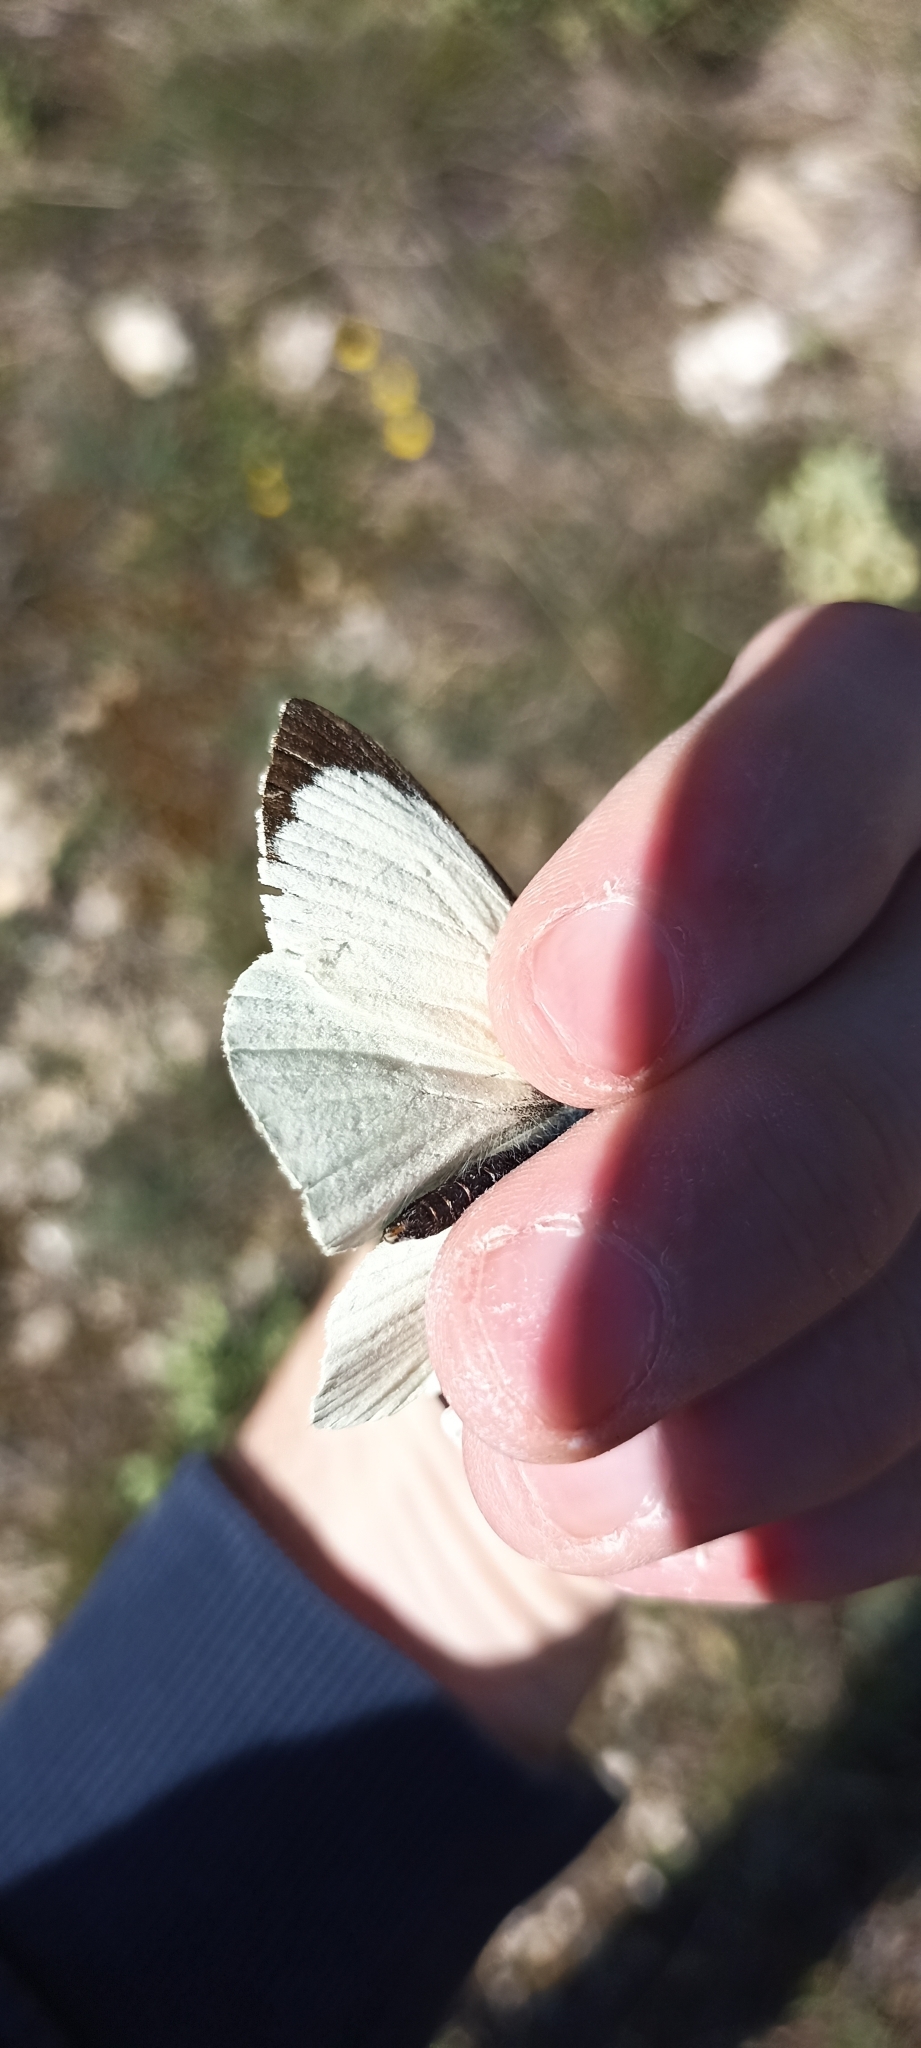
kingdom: Animalia
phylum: Arthropoda
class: Insecta
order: Lepidoptera
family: Pieridae
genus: Pieris
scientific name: Pieris brassicae
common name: Large white
